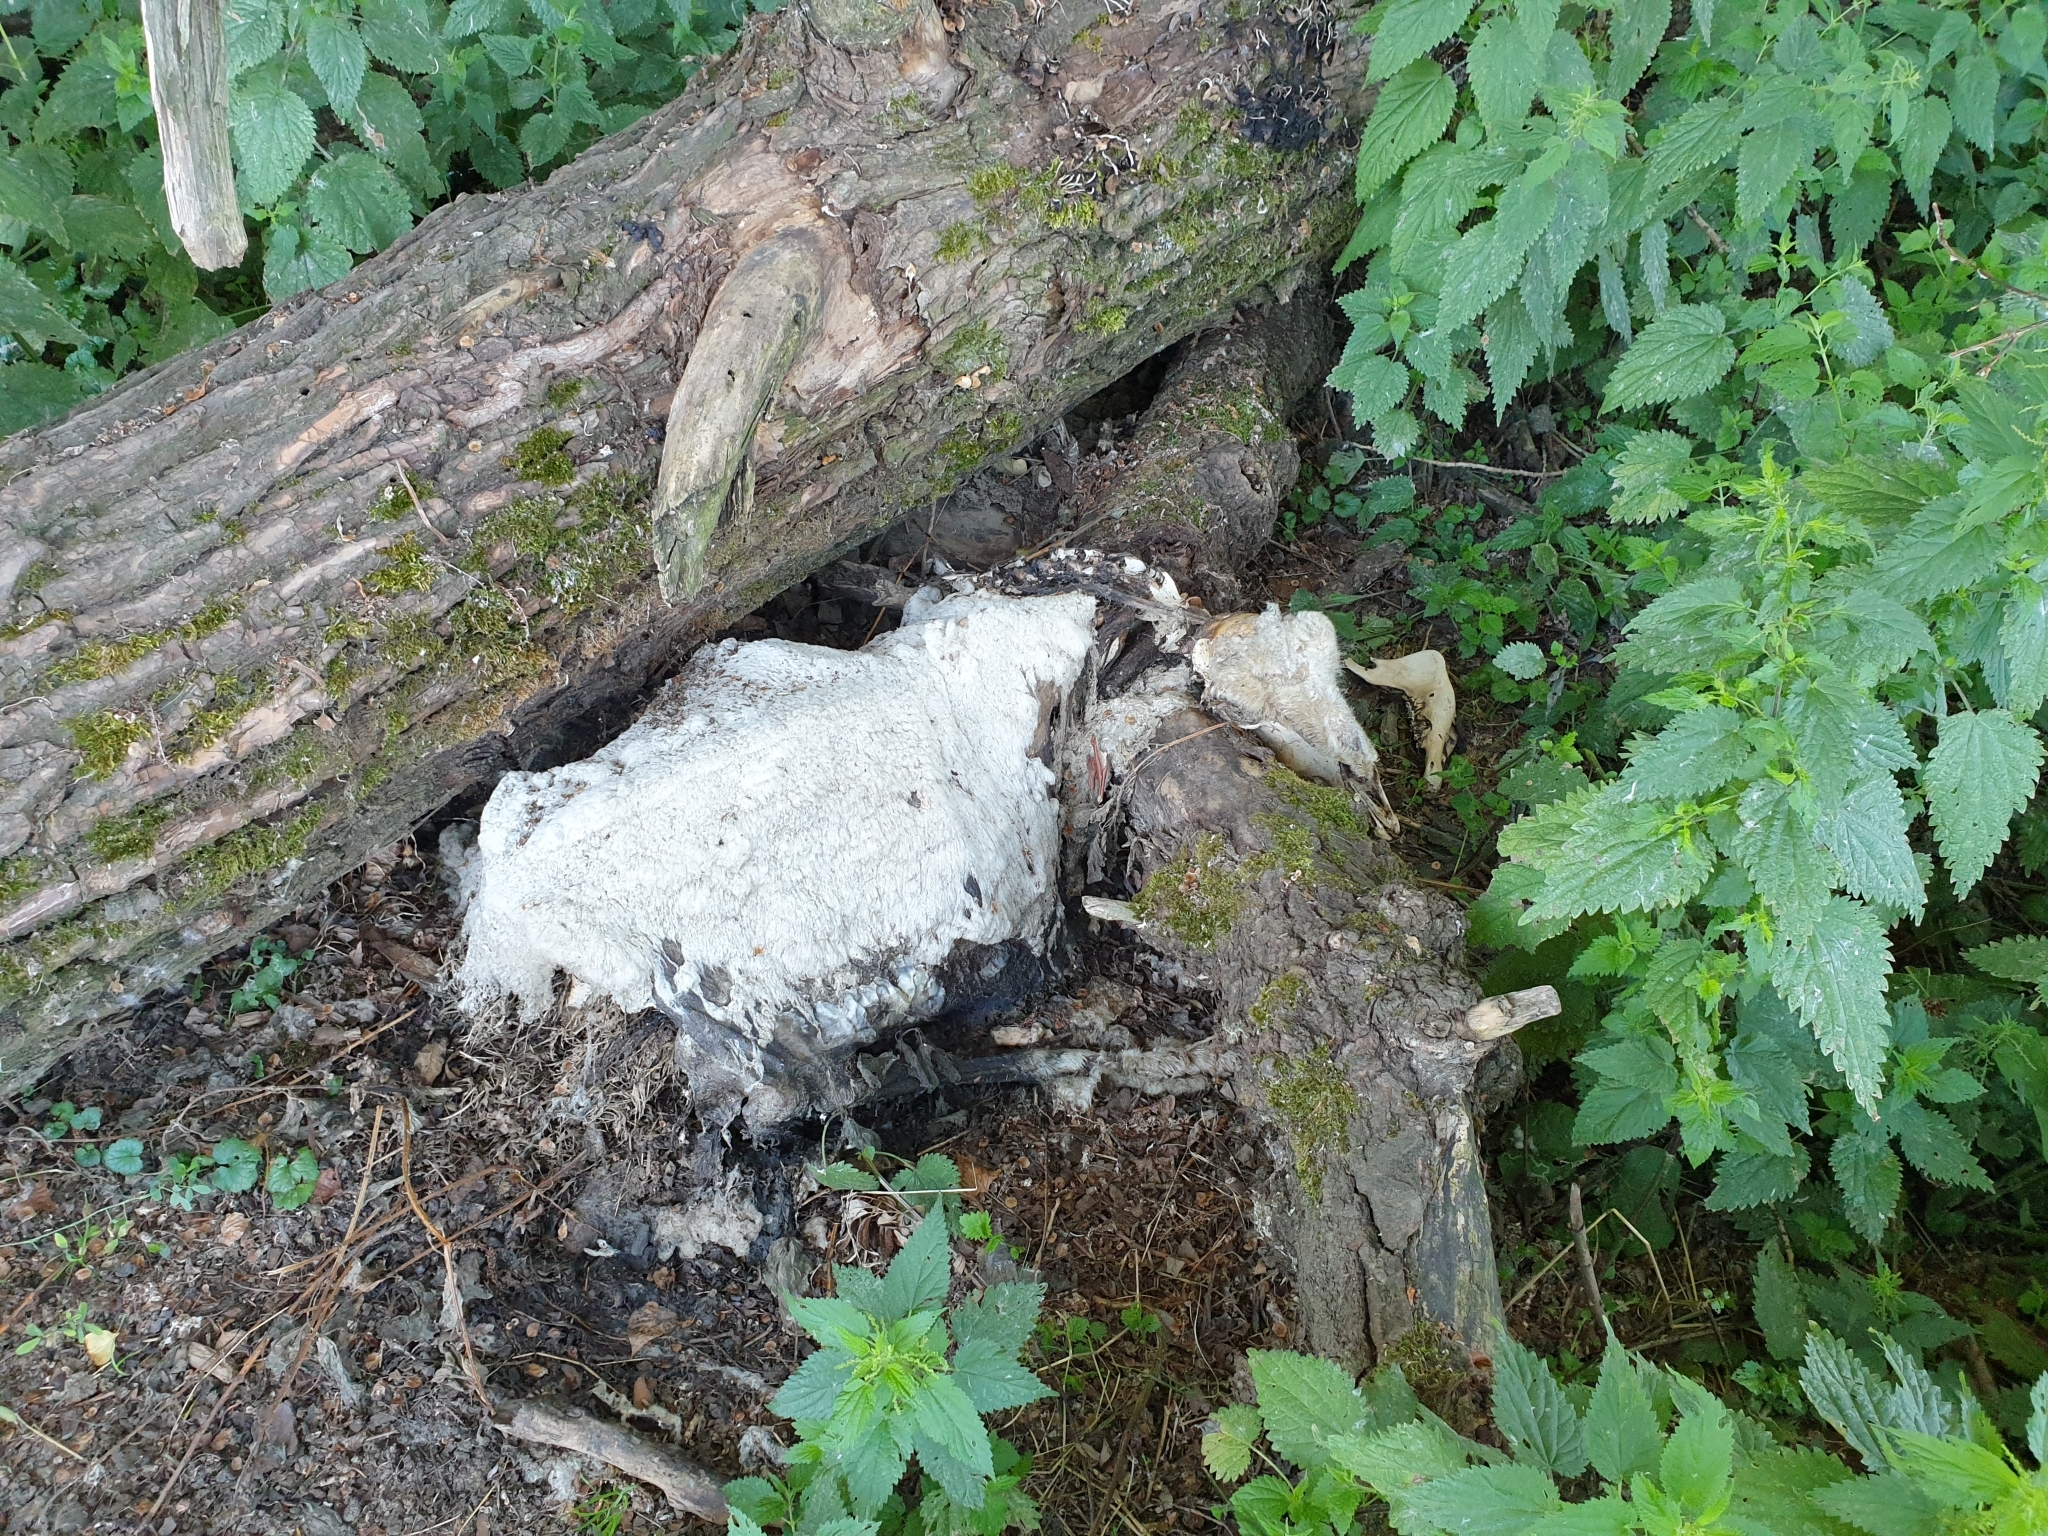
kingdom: Animalia
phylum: Chordata
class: Mammalia
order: Artiodactyla
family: Bovidae
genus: Ovis
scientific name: Ovis aries
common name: Domestic sheep
